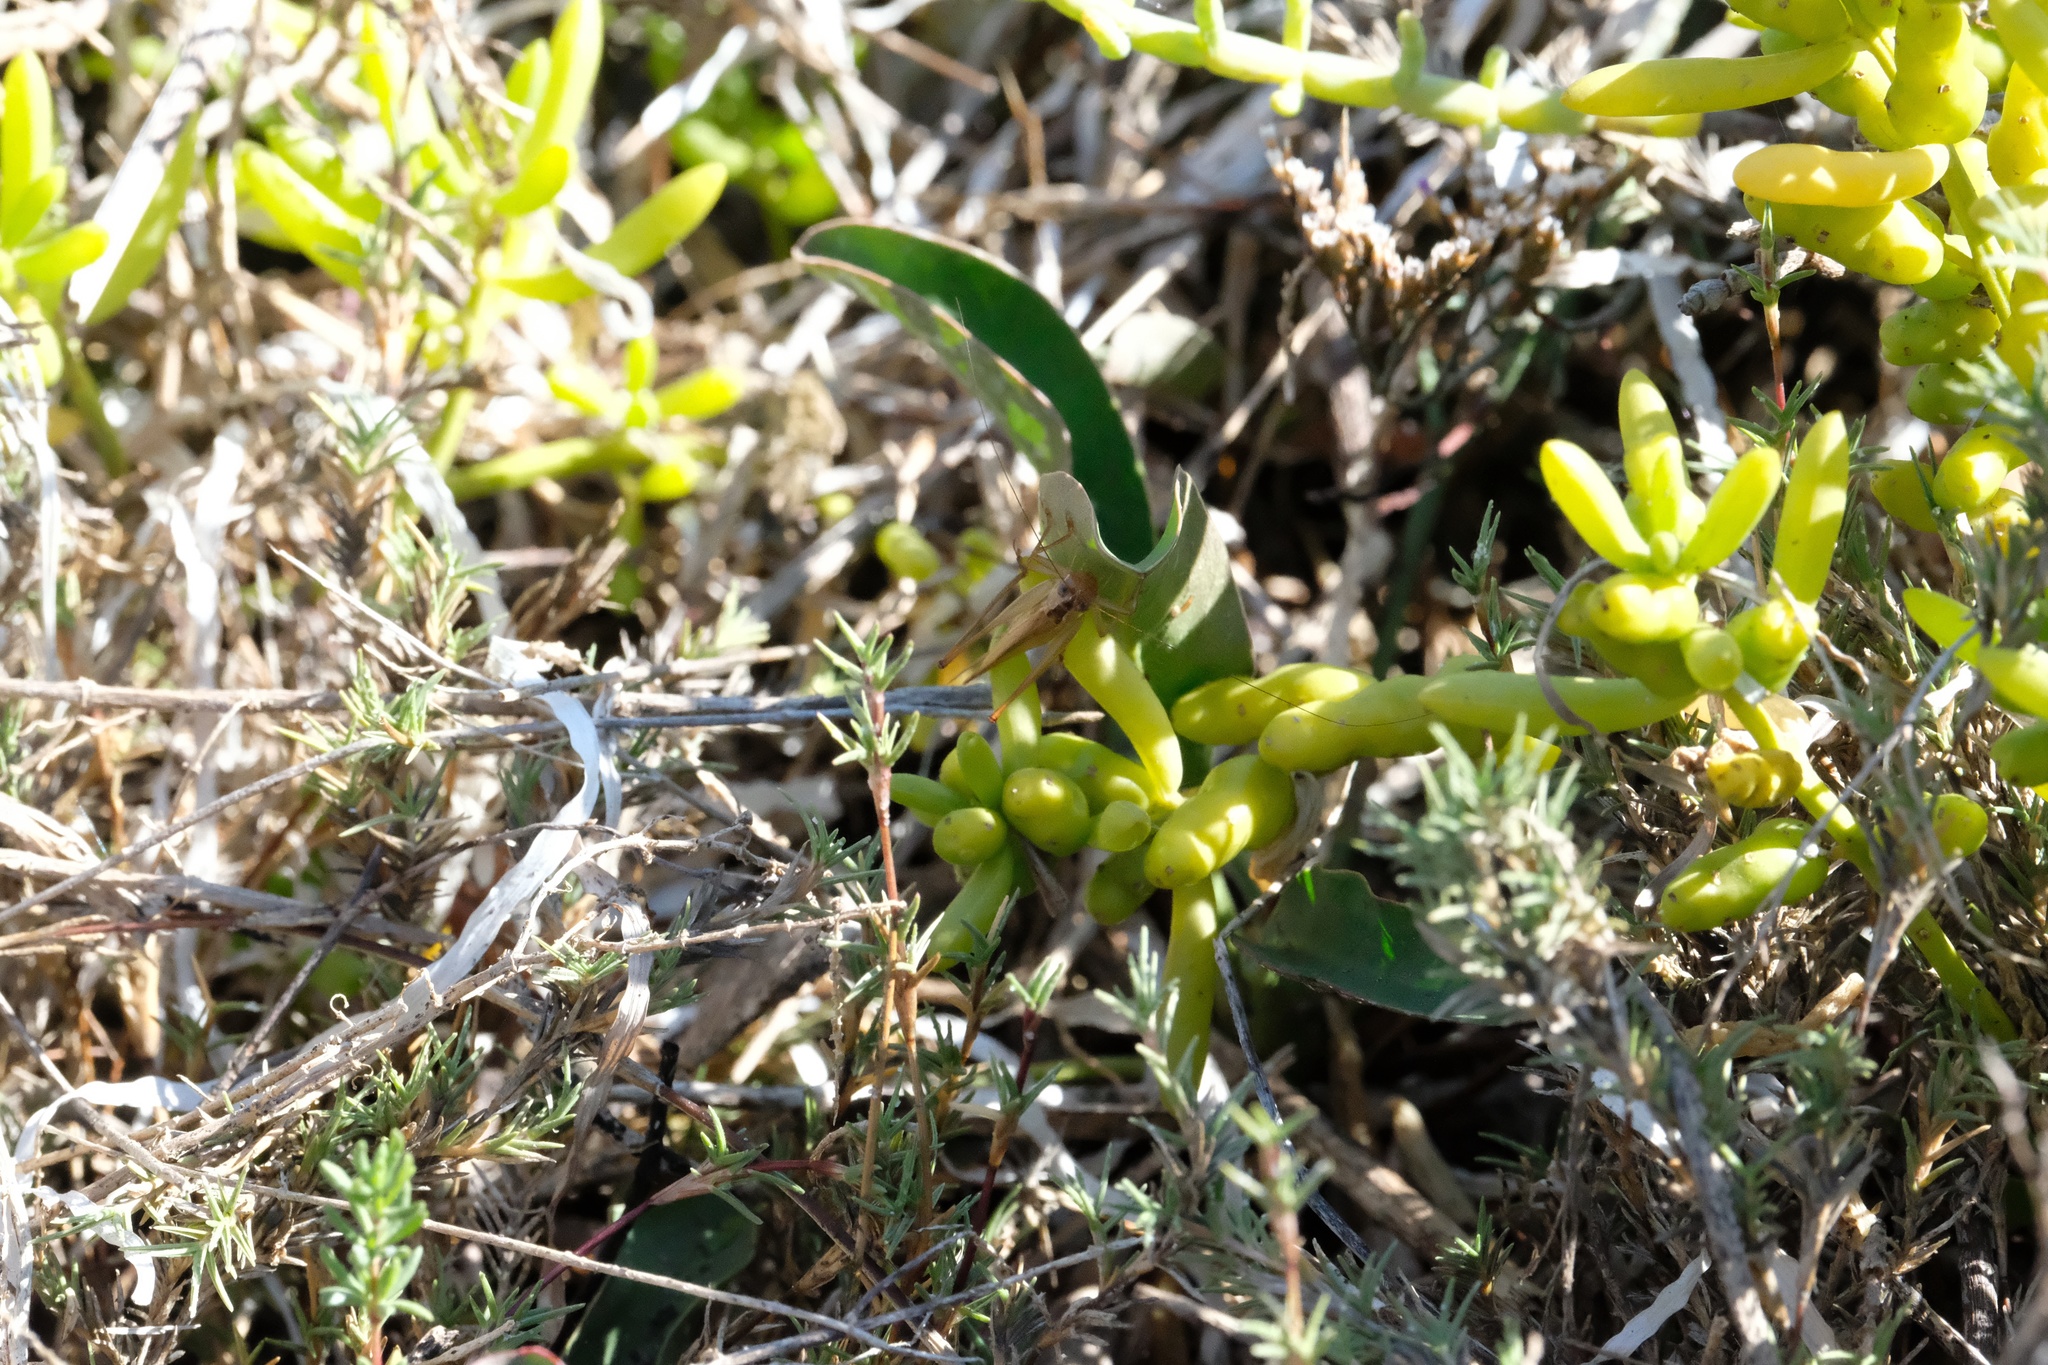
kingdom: Animalia
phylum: Arthropoda
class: Insecta
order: Orthoptera
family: Tettigoniidae
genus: Conocephalus
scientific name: Conocephalus spinosus
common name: San diego meadow katydid
